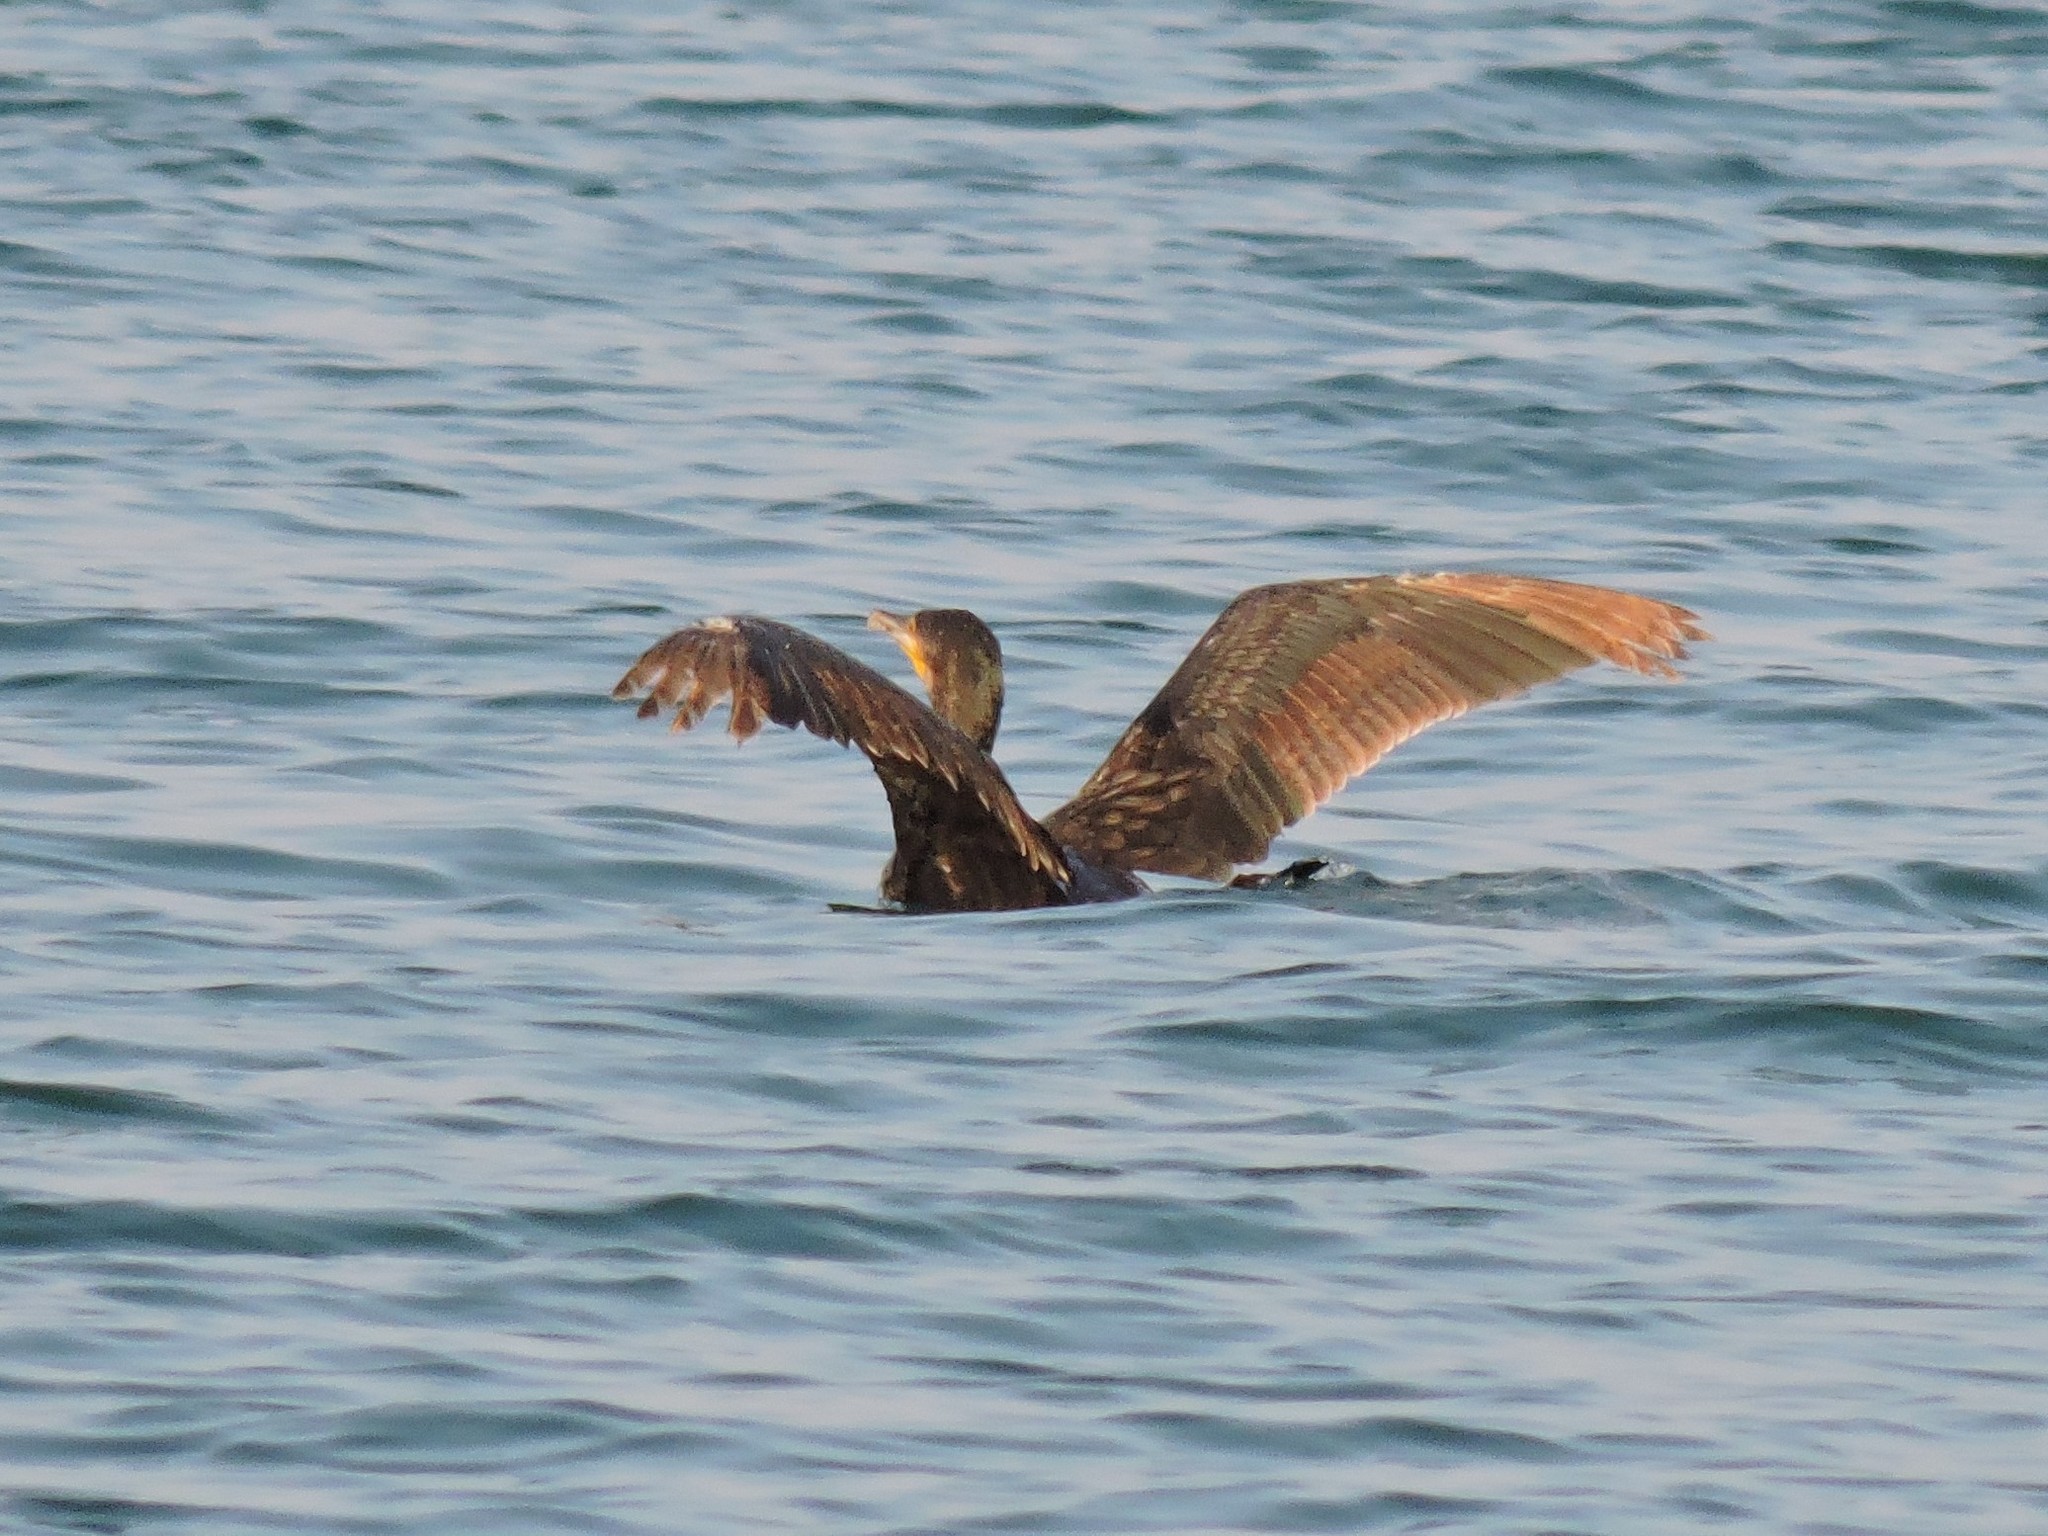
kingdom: Animalia
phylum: Chordata
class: Aves
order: Suliformes
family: Phalacrocoracidae
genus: Phalacrocorax
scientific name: Phalacrocorax carbo
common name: Great cormorant
